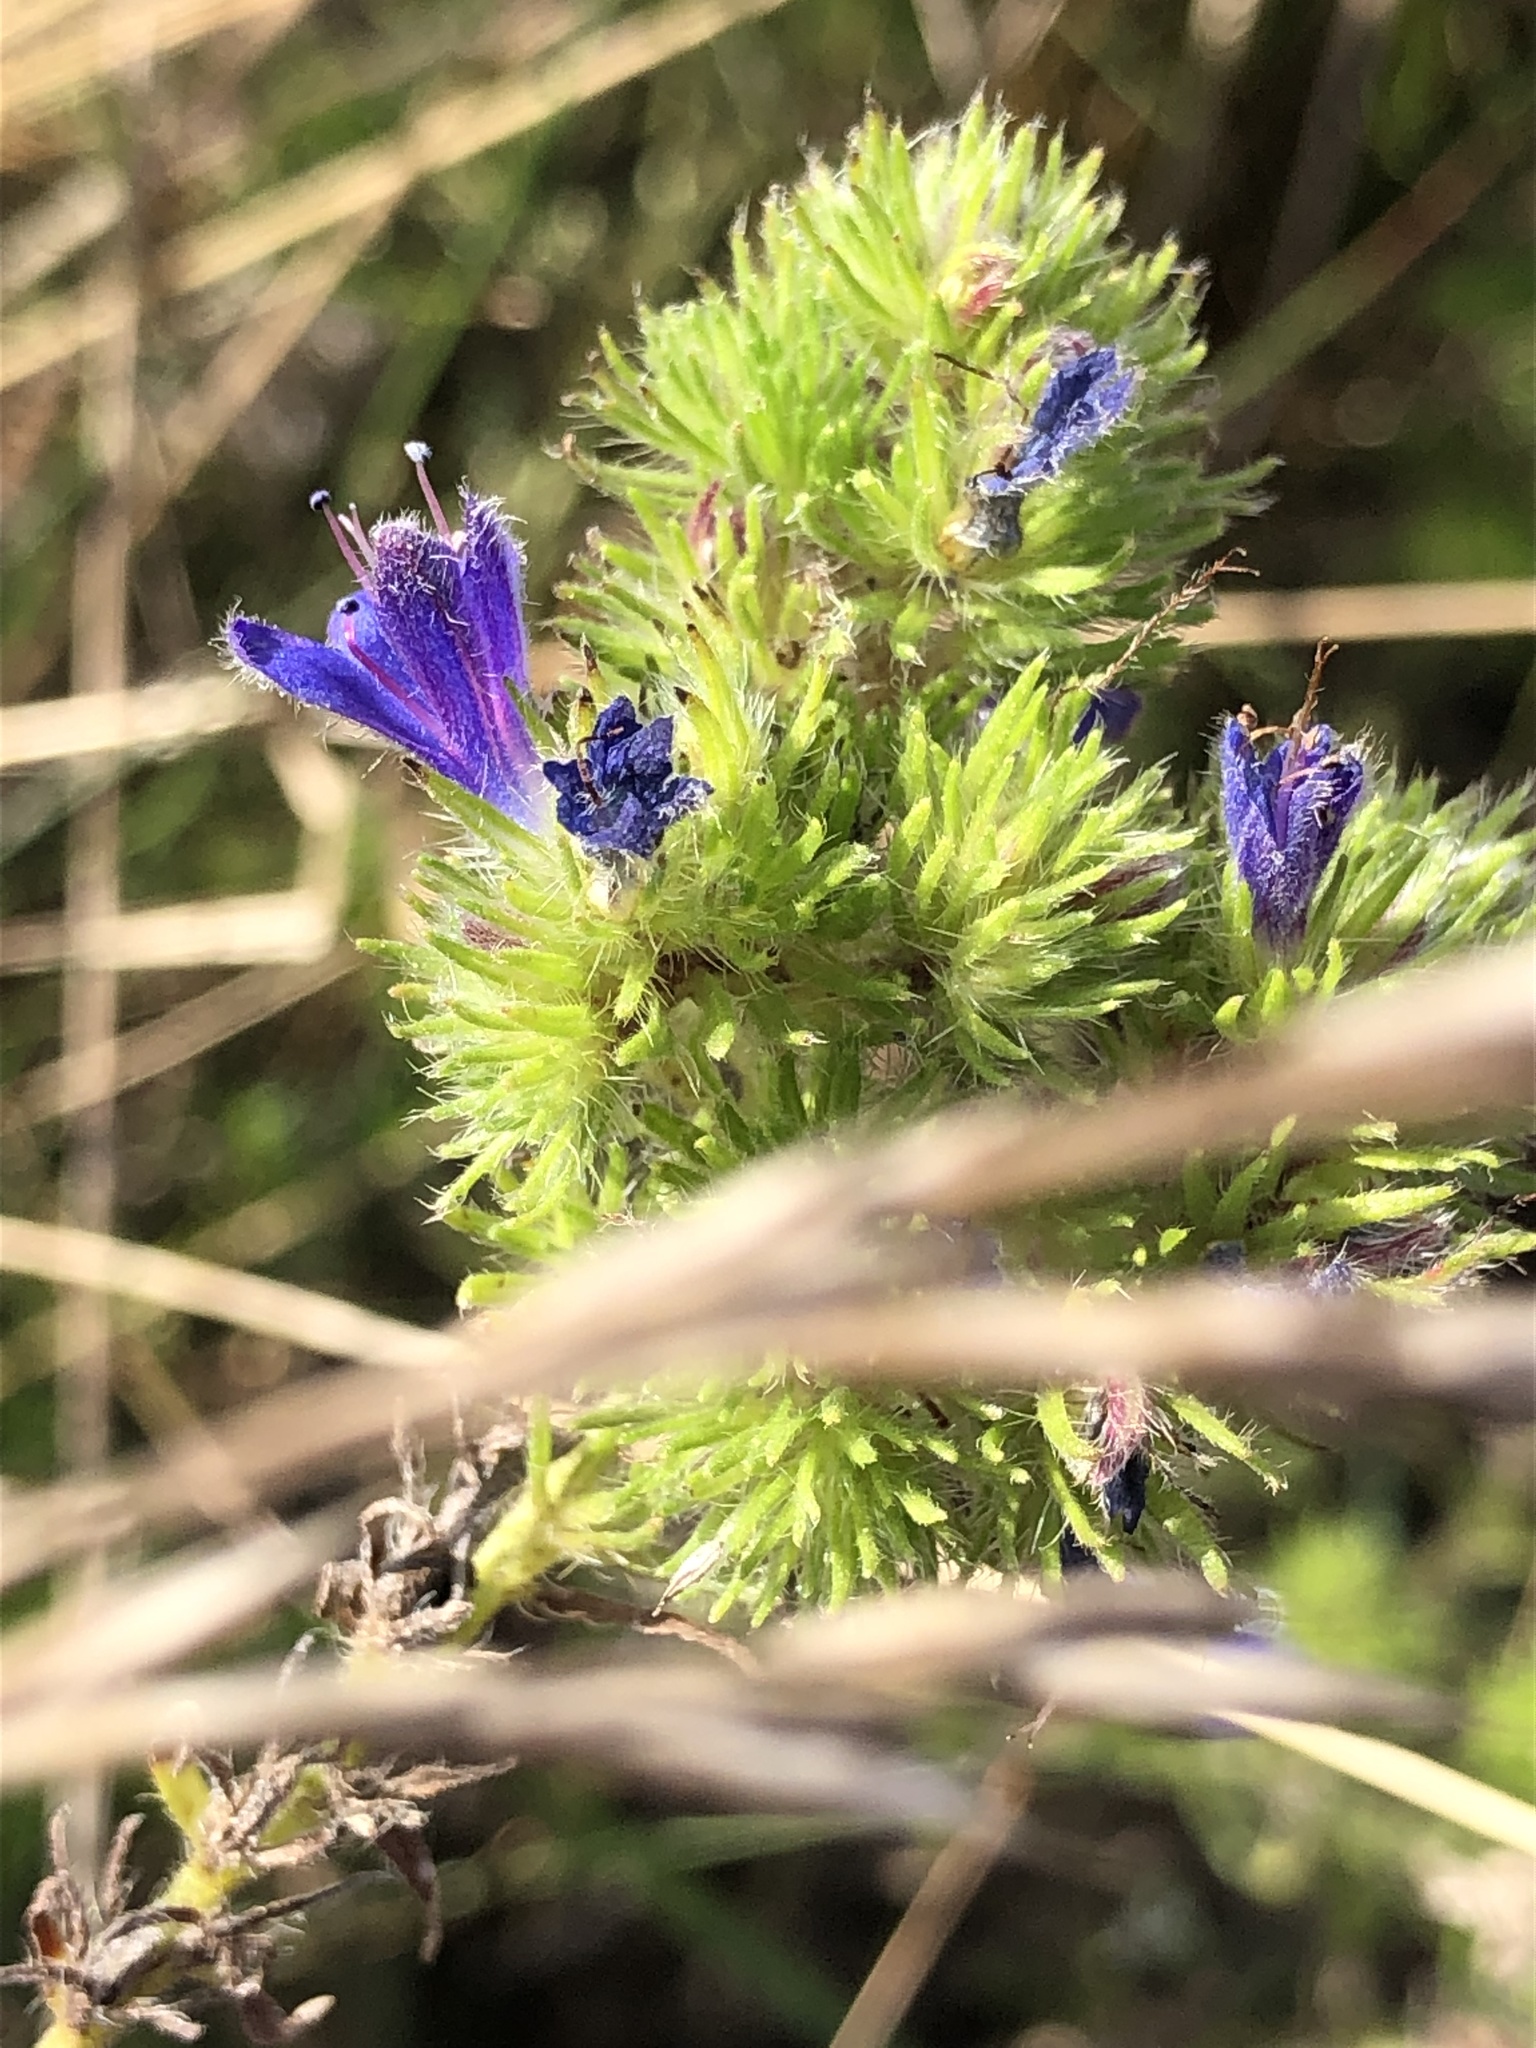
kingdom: Plantae
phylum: Tracheophyta
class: Magnoliopsida
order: Boraginales
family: Boraginaceae
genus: Echium
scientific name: Echium vulgare
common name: Common viper's bugloss
